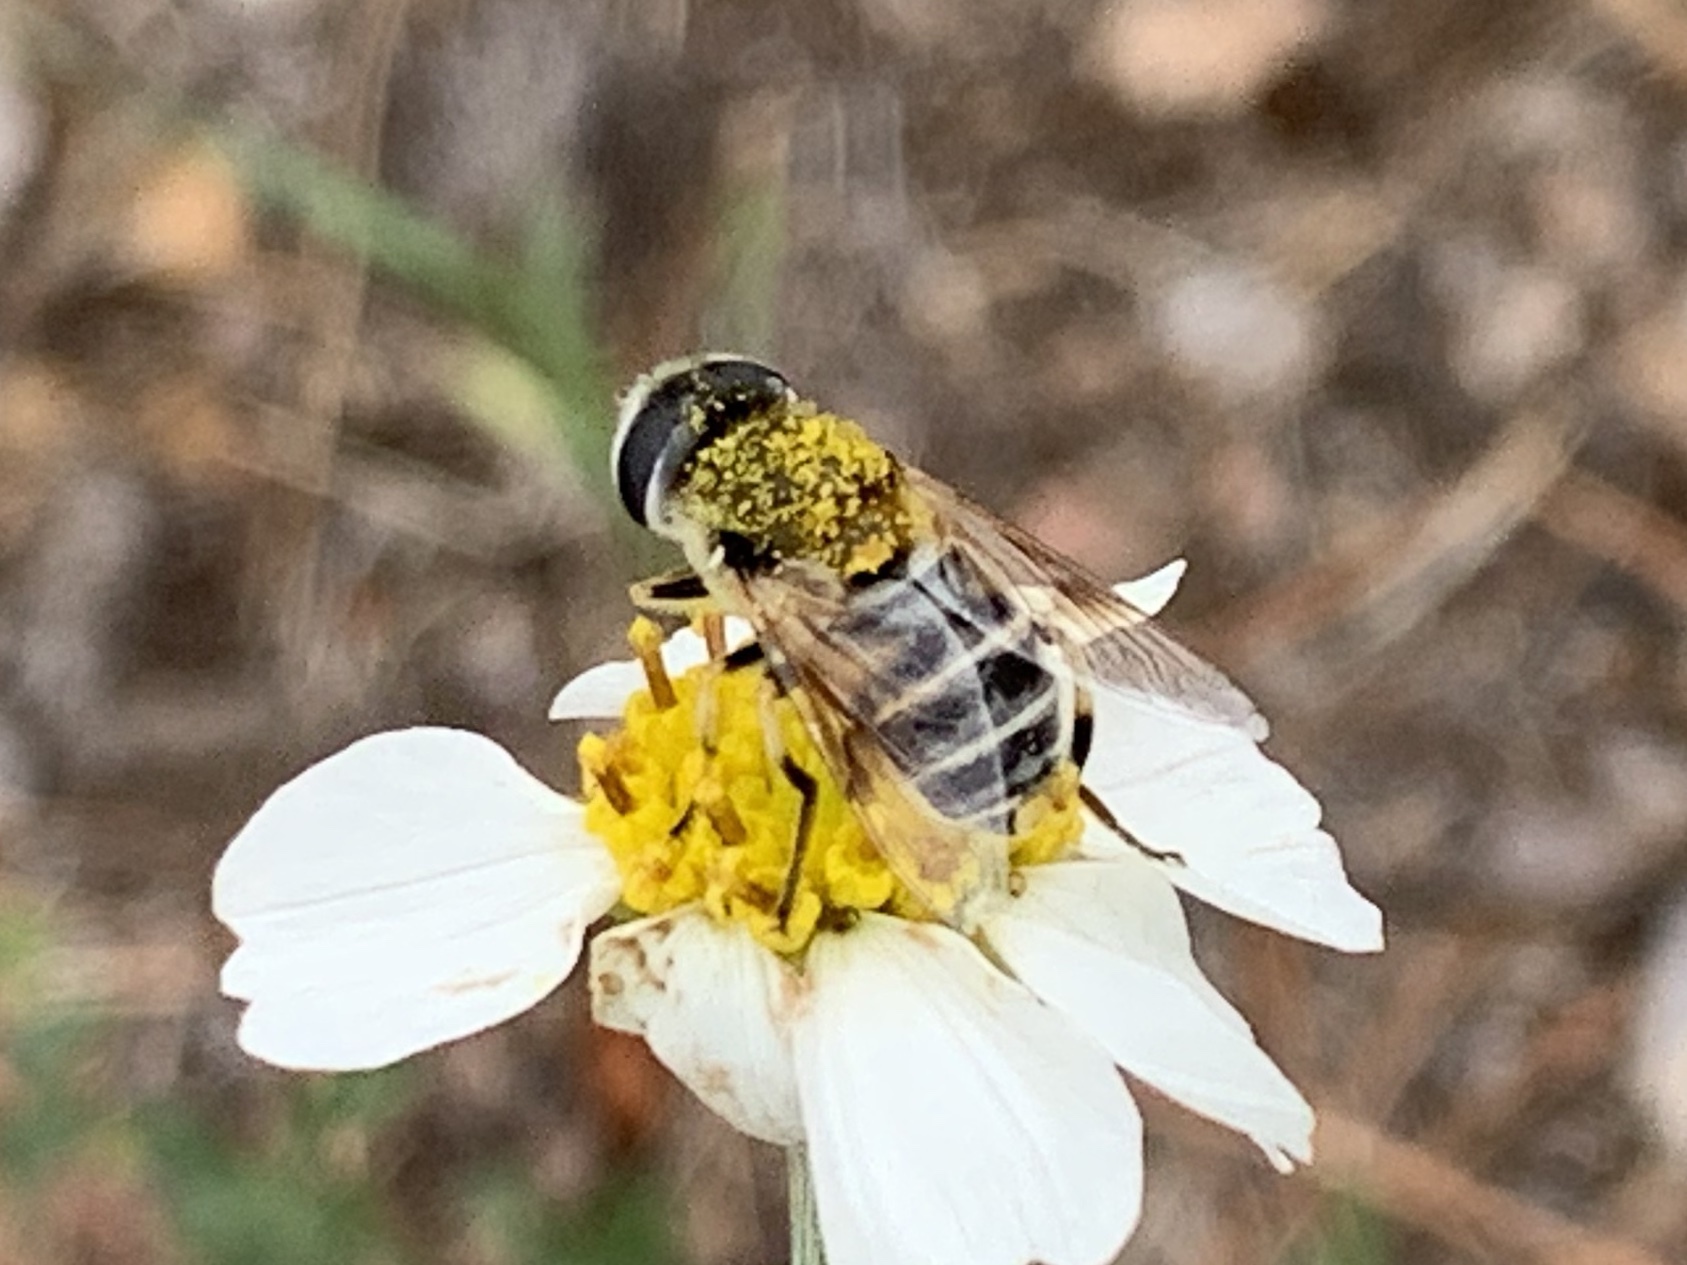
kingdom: Animalia
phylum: Arthropoda
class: Insecta
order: Diptera
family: Syrphidae
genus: Eristalis
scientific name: Eristalis stipator
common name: Yellow-shouldered drone fly
